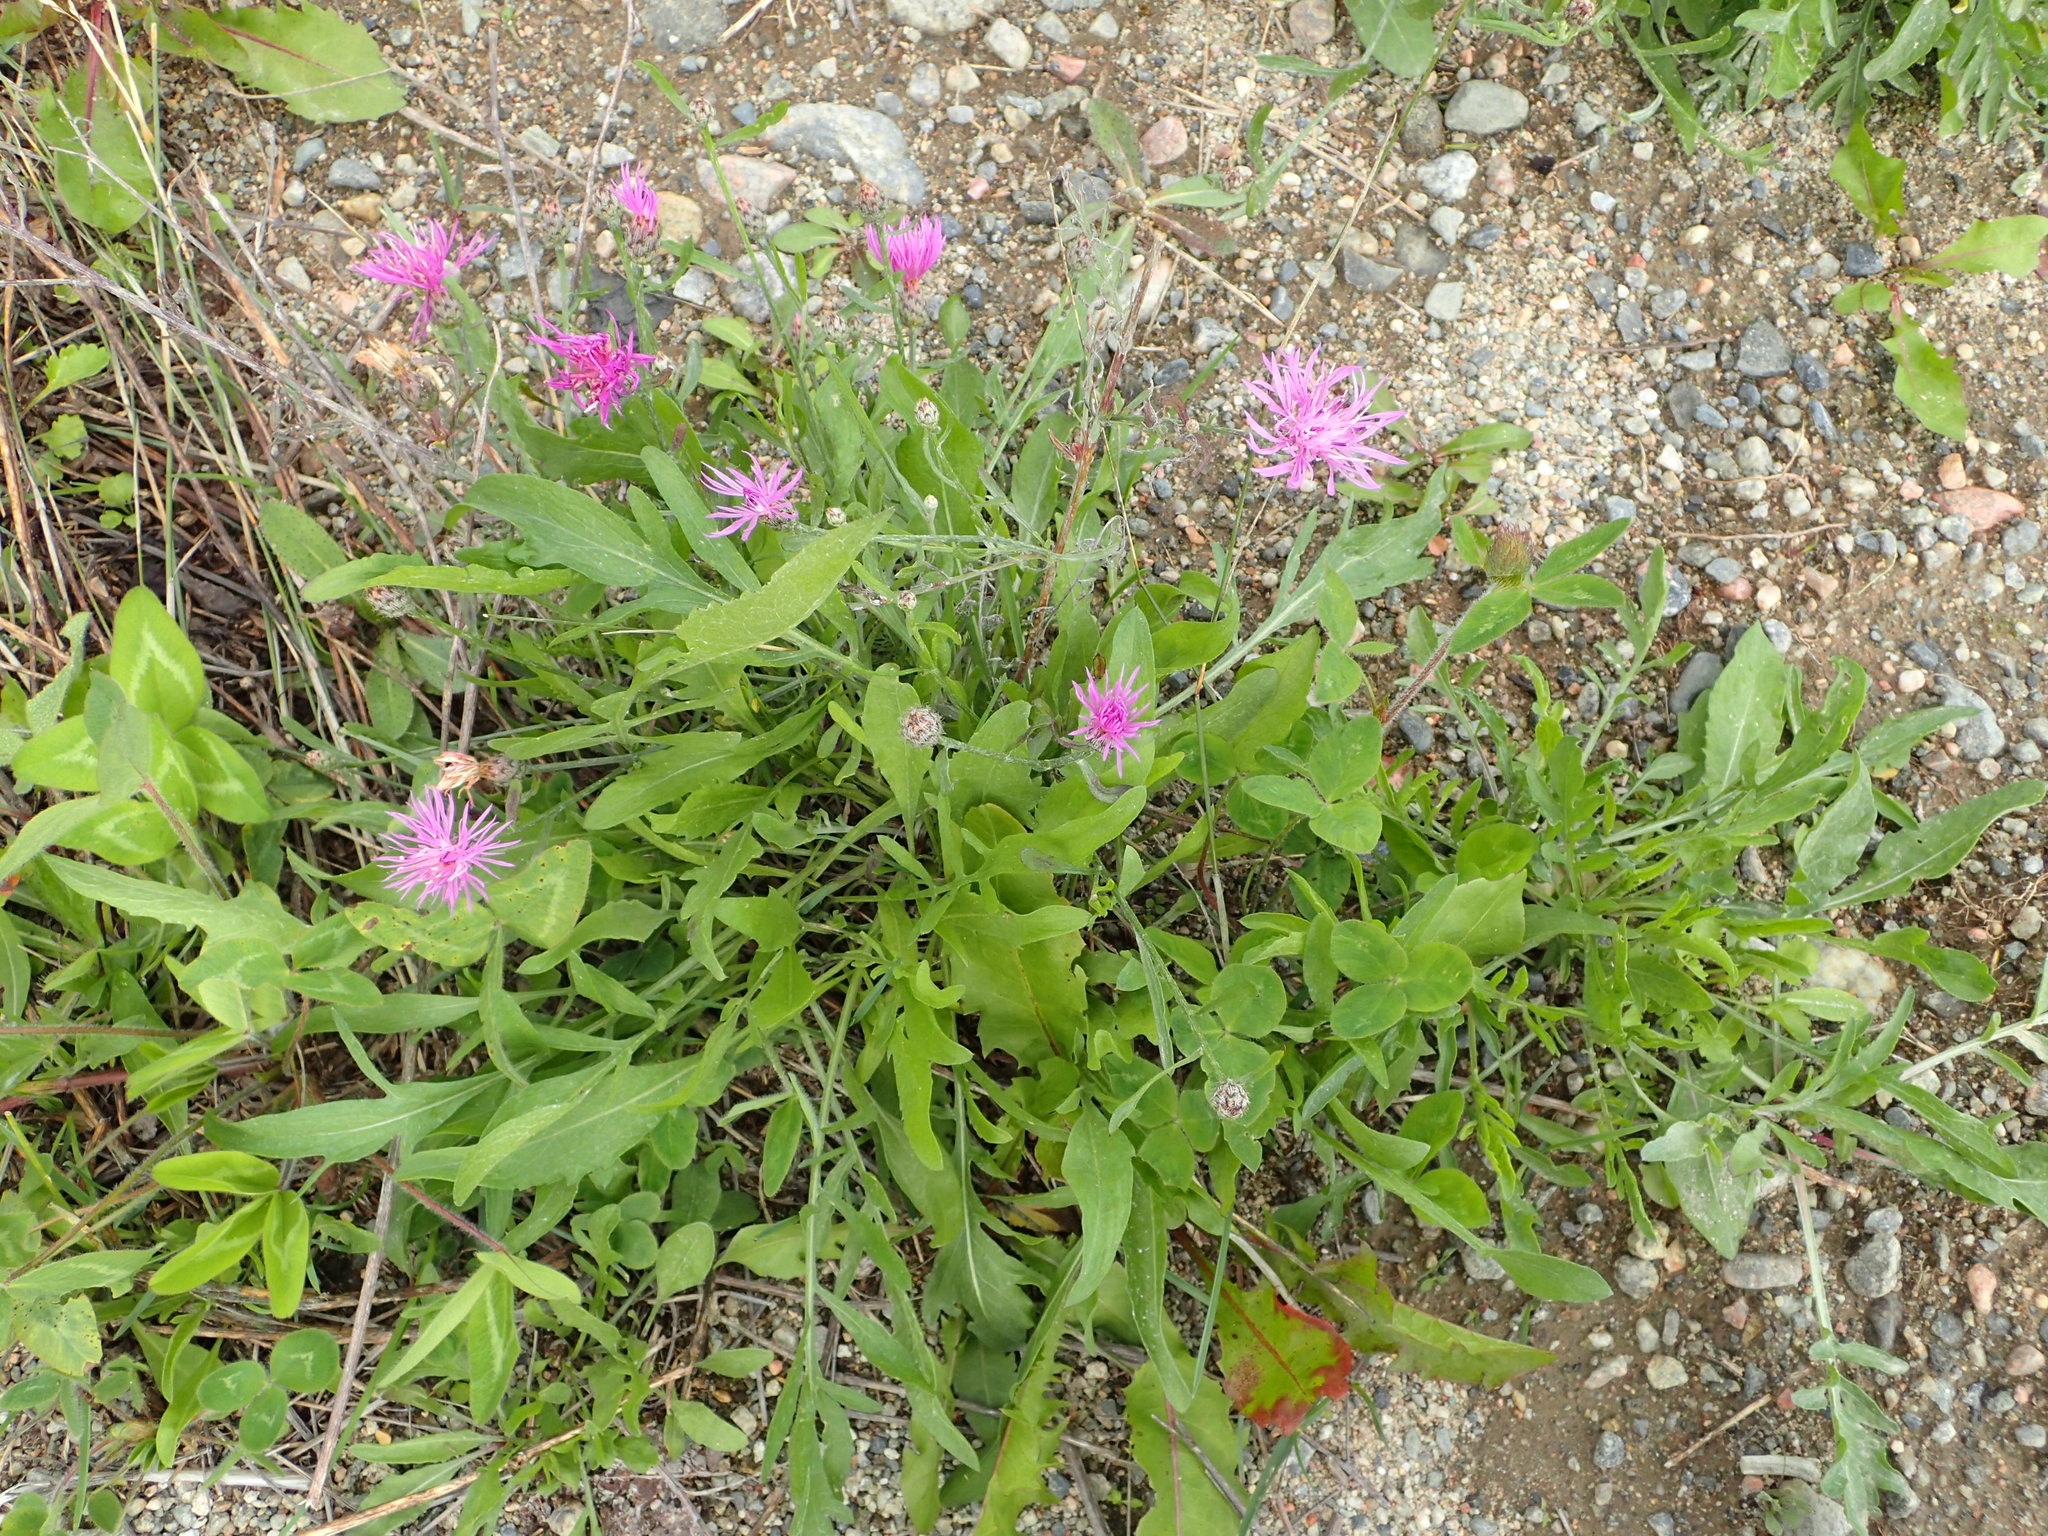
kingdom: Plantae
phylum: Tracheophyta
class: Magnoliopsida
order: Asterales
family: Asteraceae
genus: Centaurea
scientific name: Centaurea stoebe
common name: Spotted knapweed
